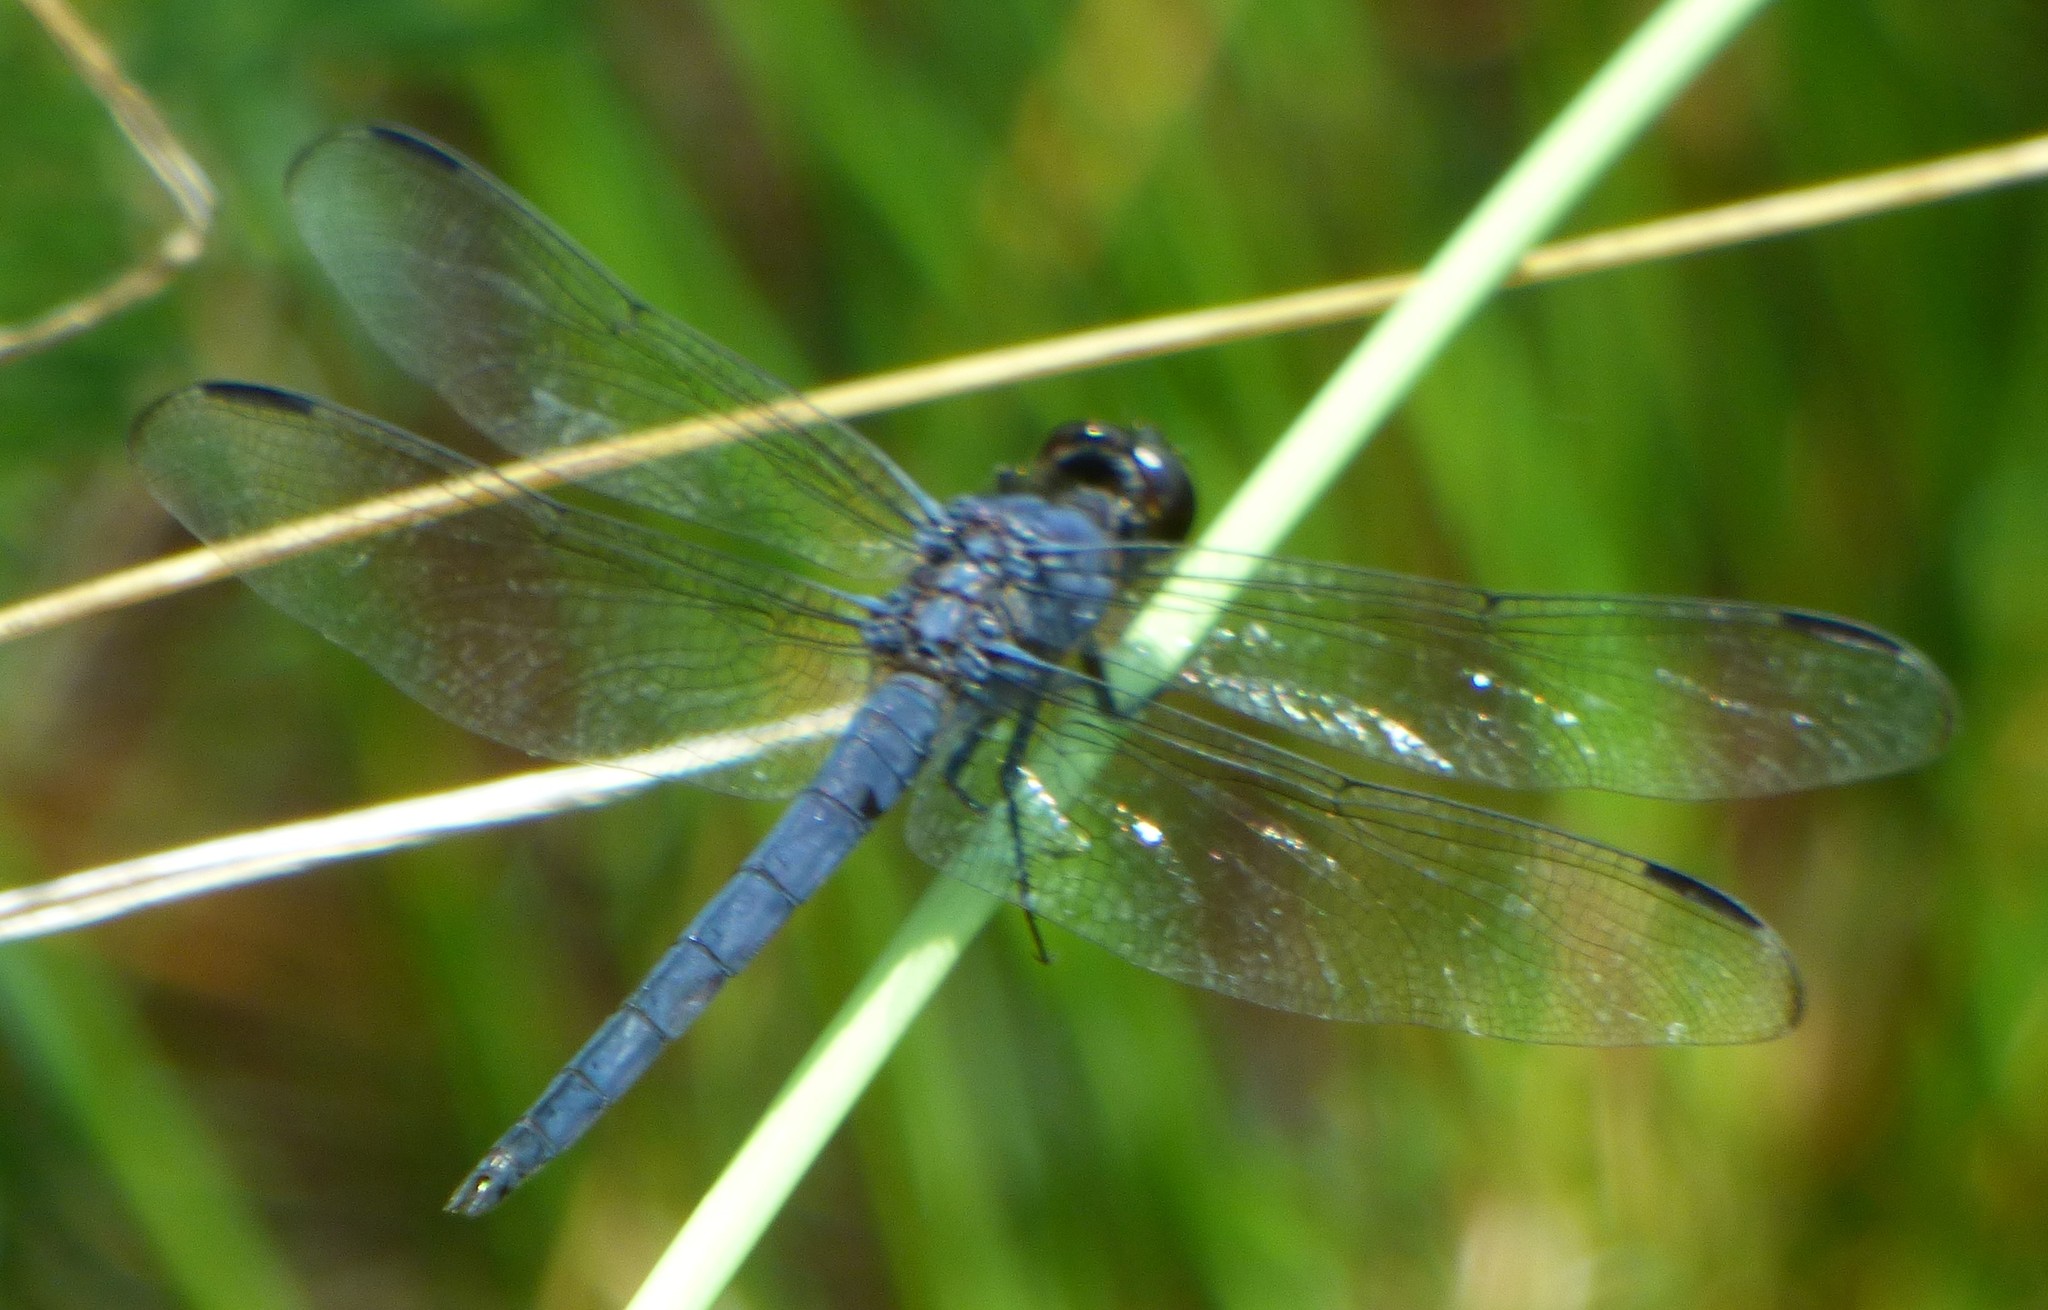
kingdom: Animalia
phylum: Arthropoda
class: Insecta
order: Odonata
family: Libellulidae
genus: Libellula
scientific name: Libellula incesta
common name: Slaty skimmer
